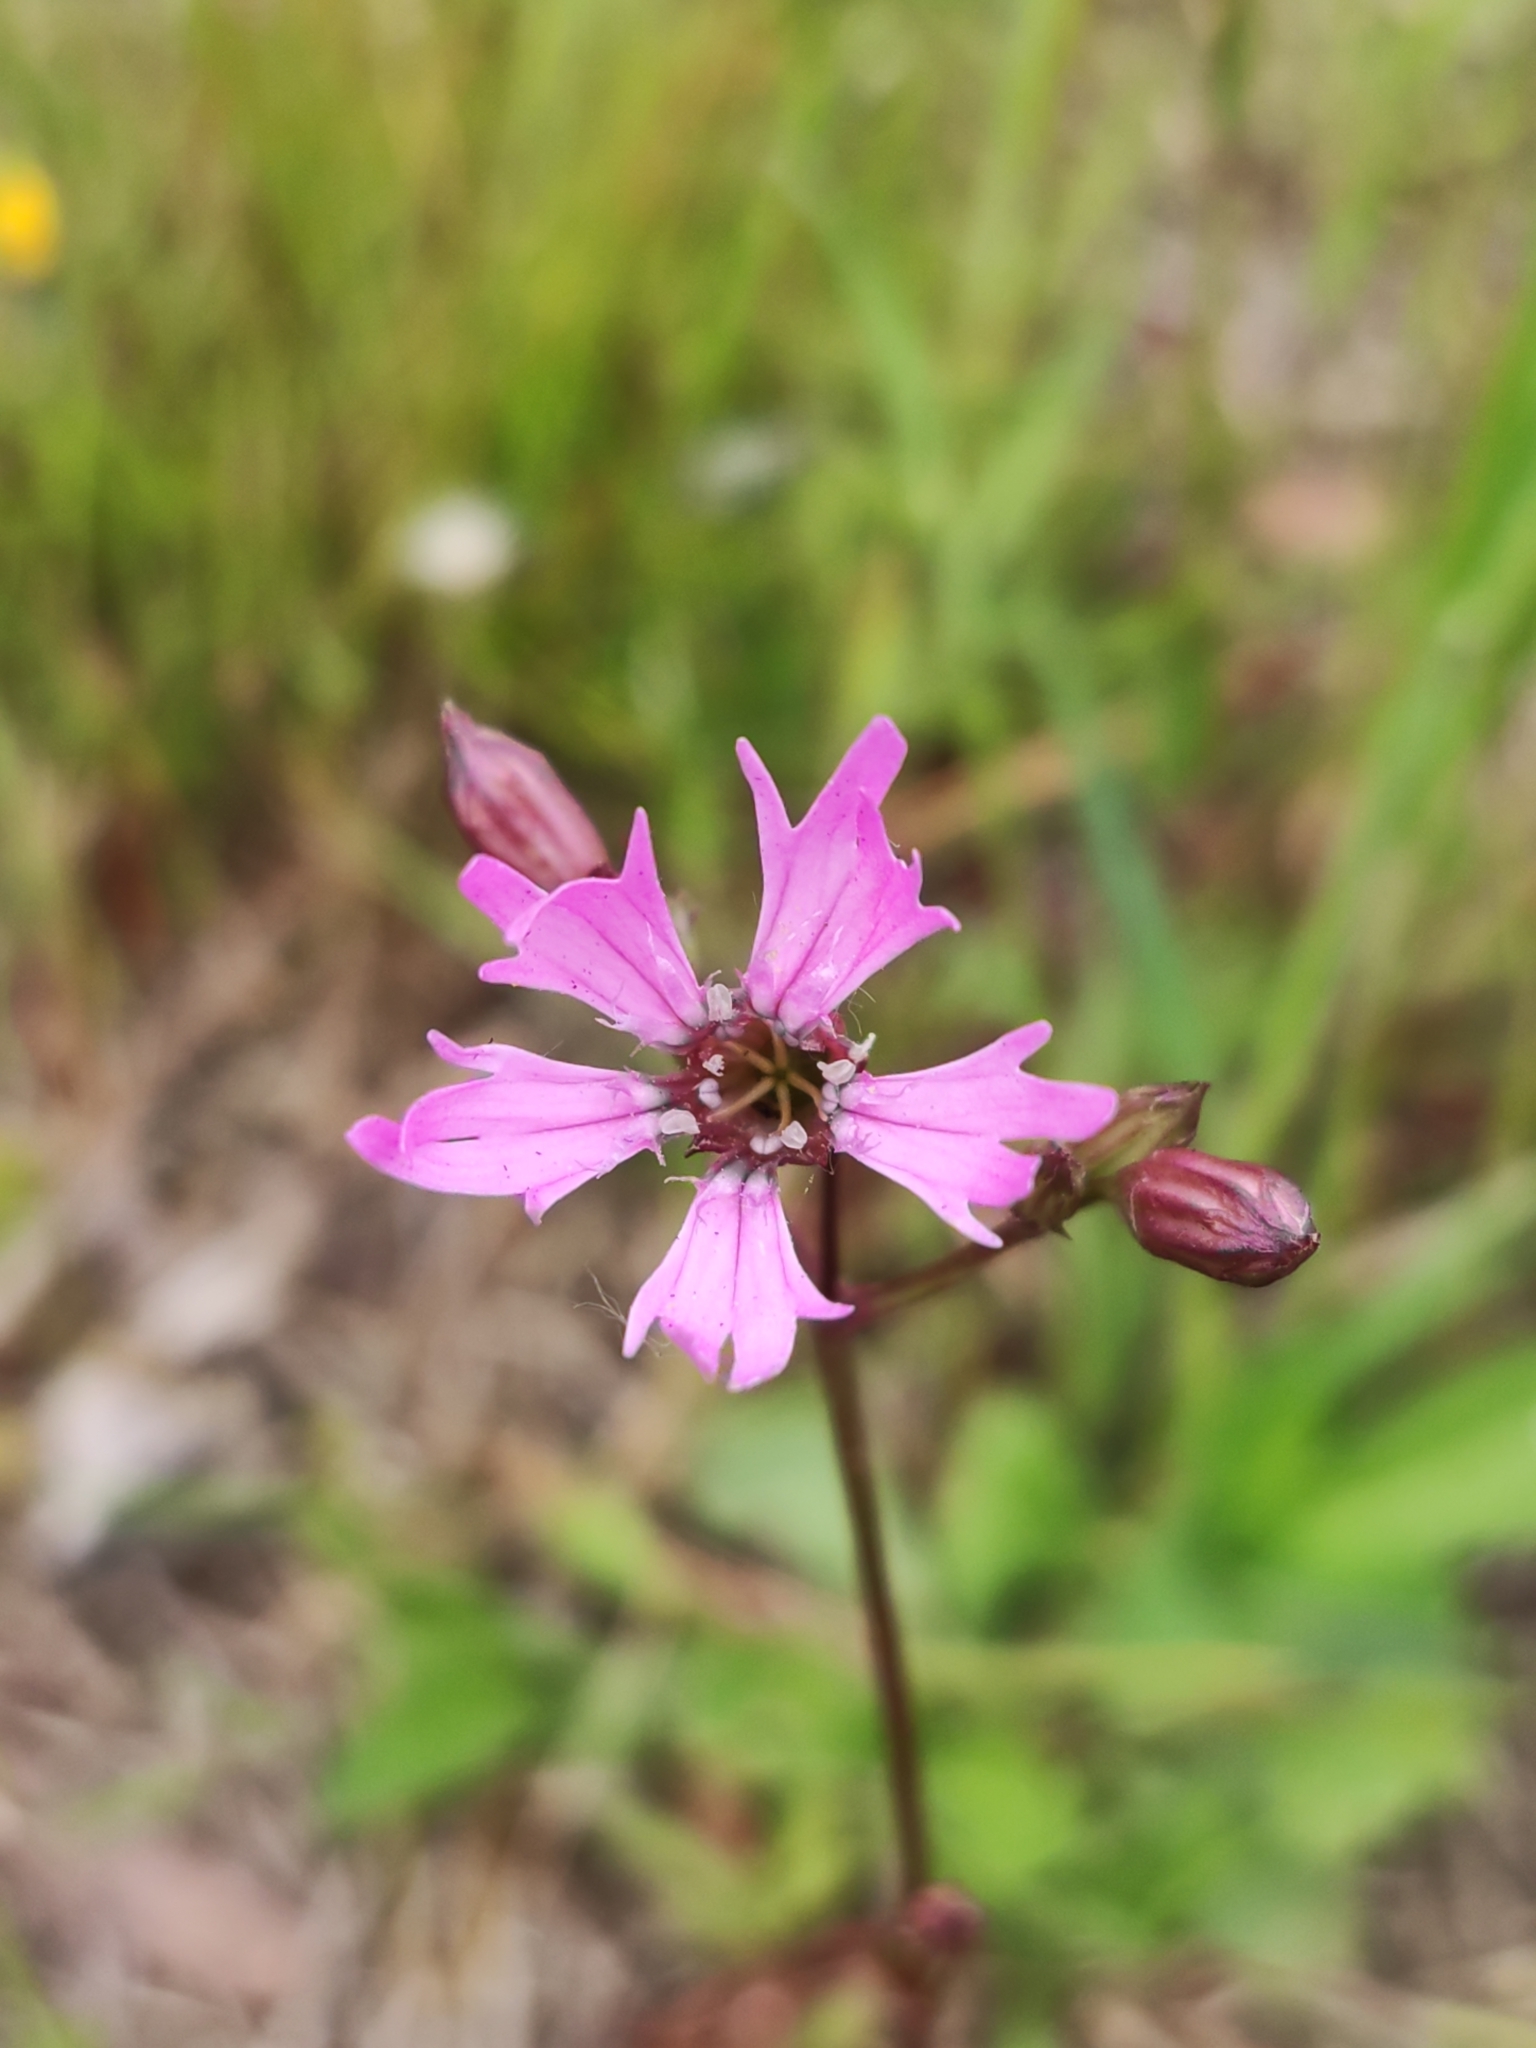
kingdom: Plantae
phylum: Tracheophyta
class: Magnoliopsida
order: Caryophyllales
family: Caryophyllaceae
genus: Silene
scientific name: Silene flos-cuculi
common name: Ragged-robin
